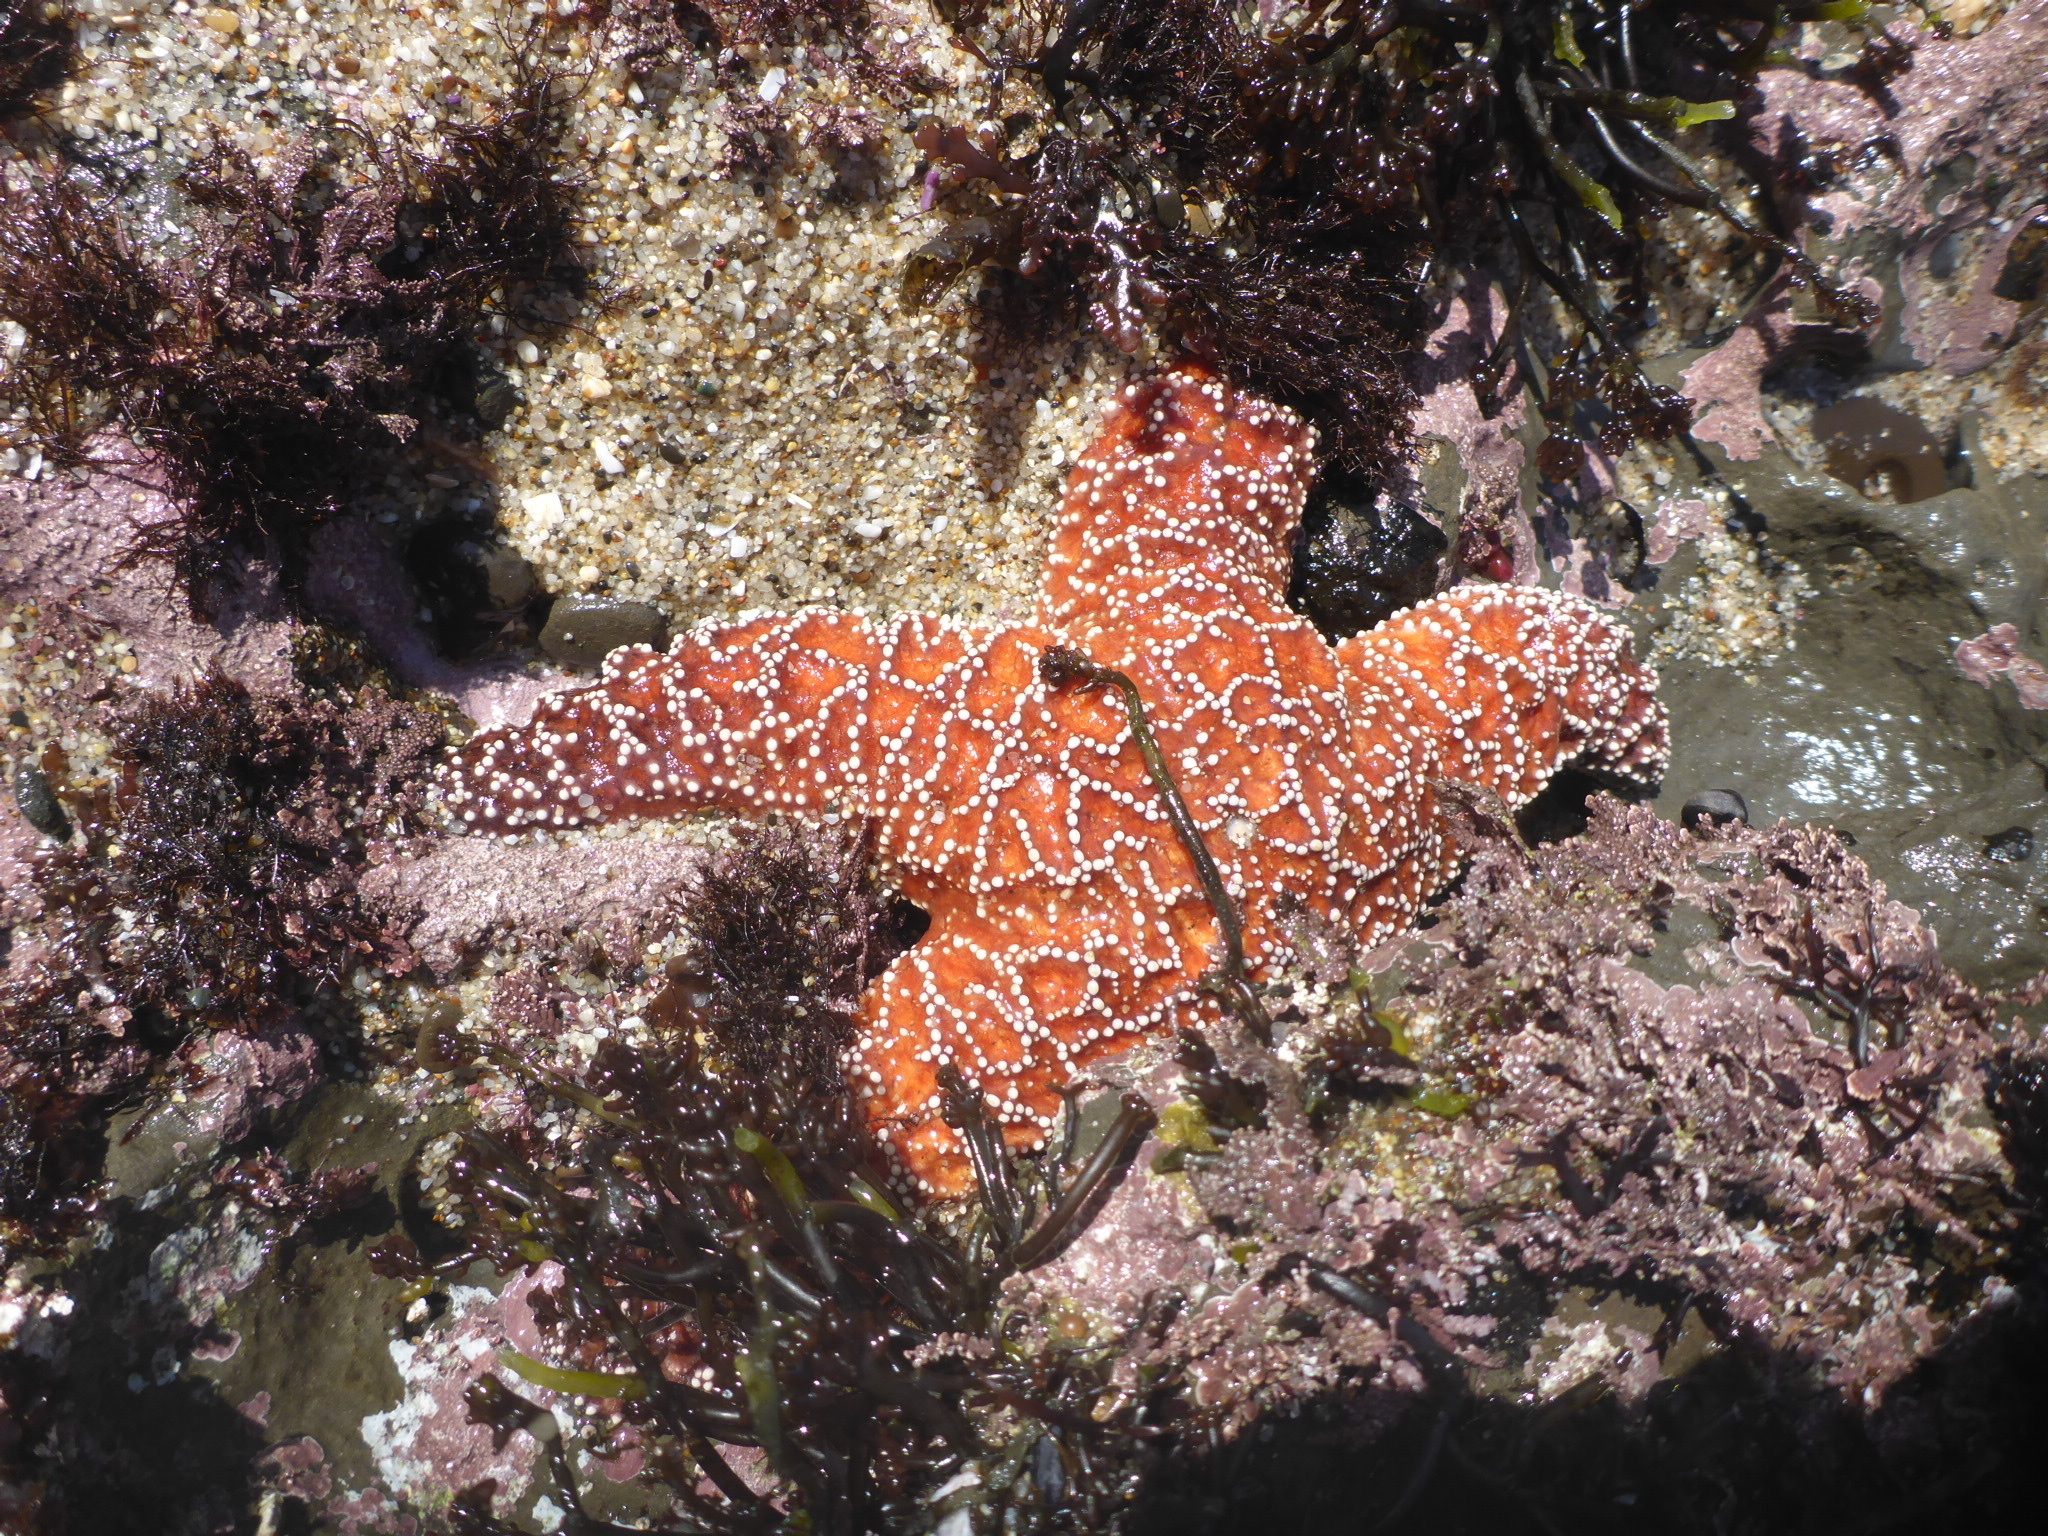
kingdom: Animalia
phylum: Echinodermata
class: Asteroidea
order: Forcipulatida
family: Asteriidae
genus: Pisaster
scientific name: Pisaster ochraceus
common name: Ochre stars
